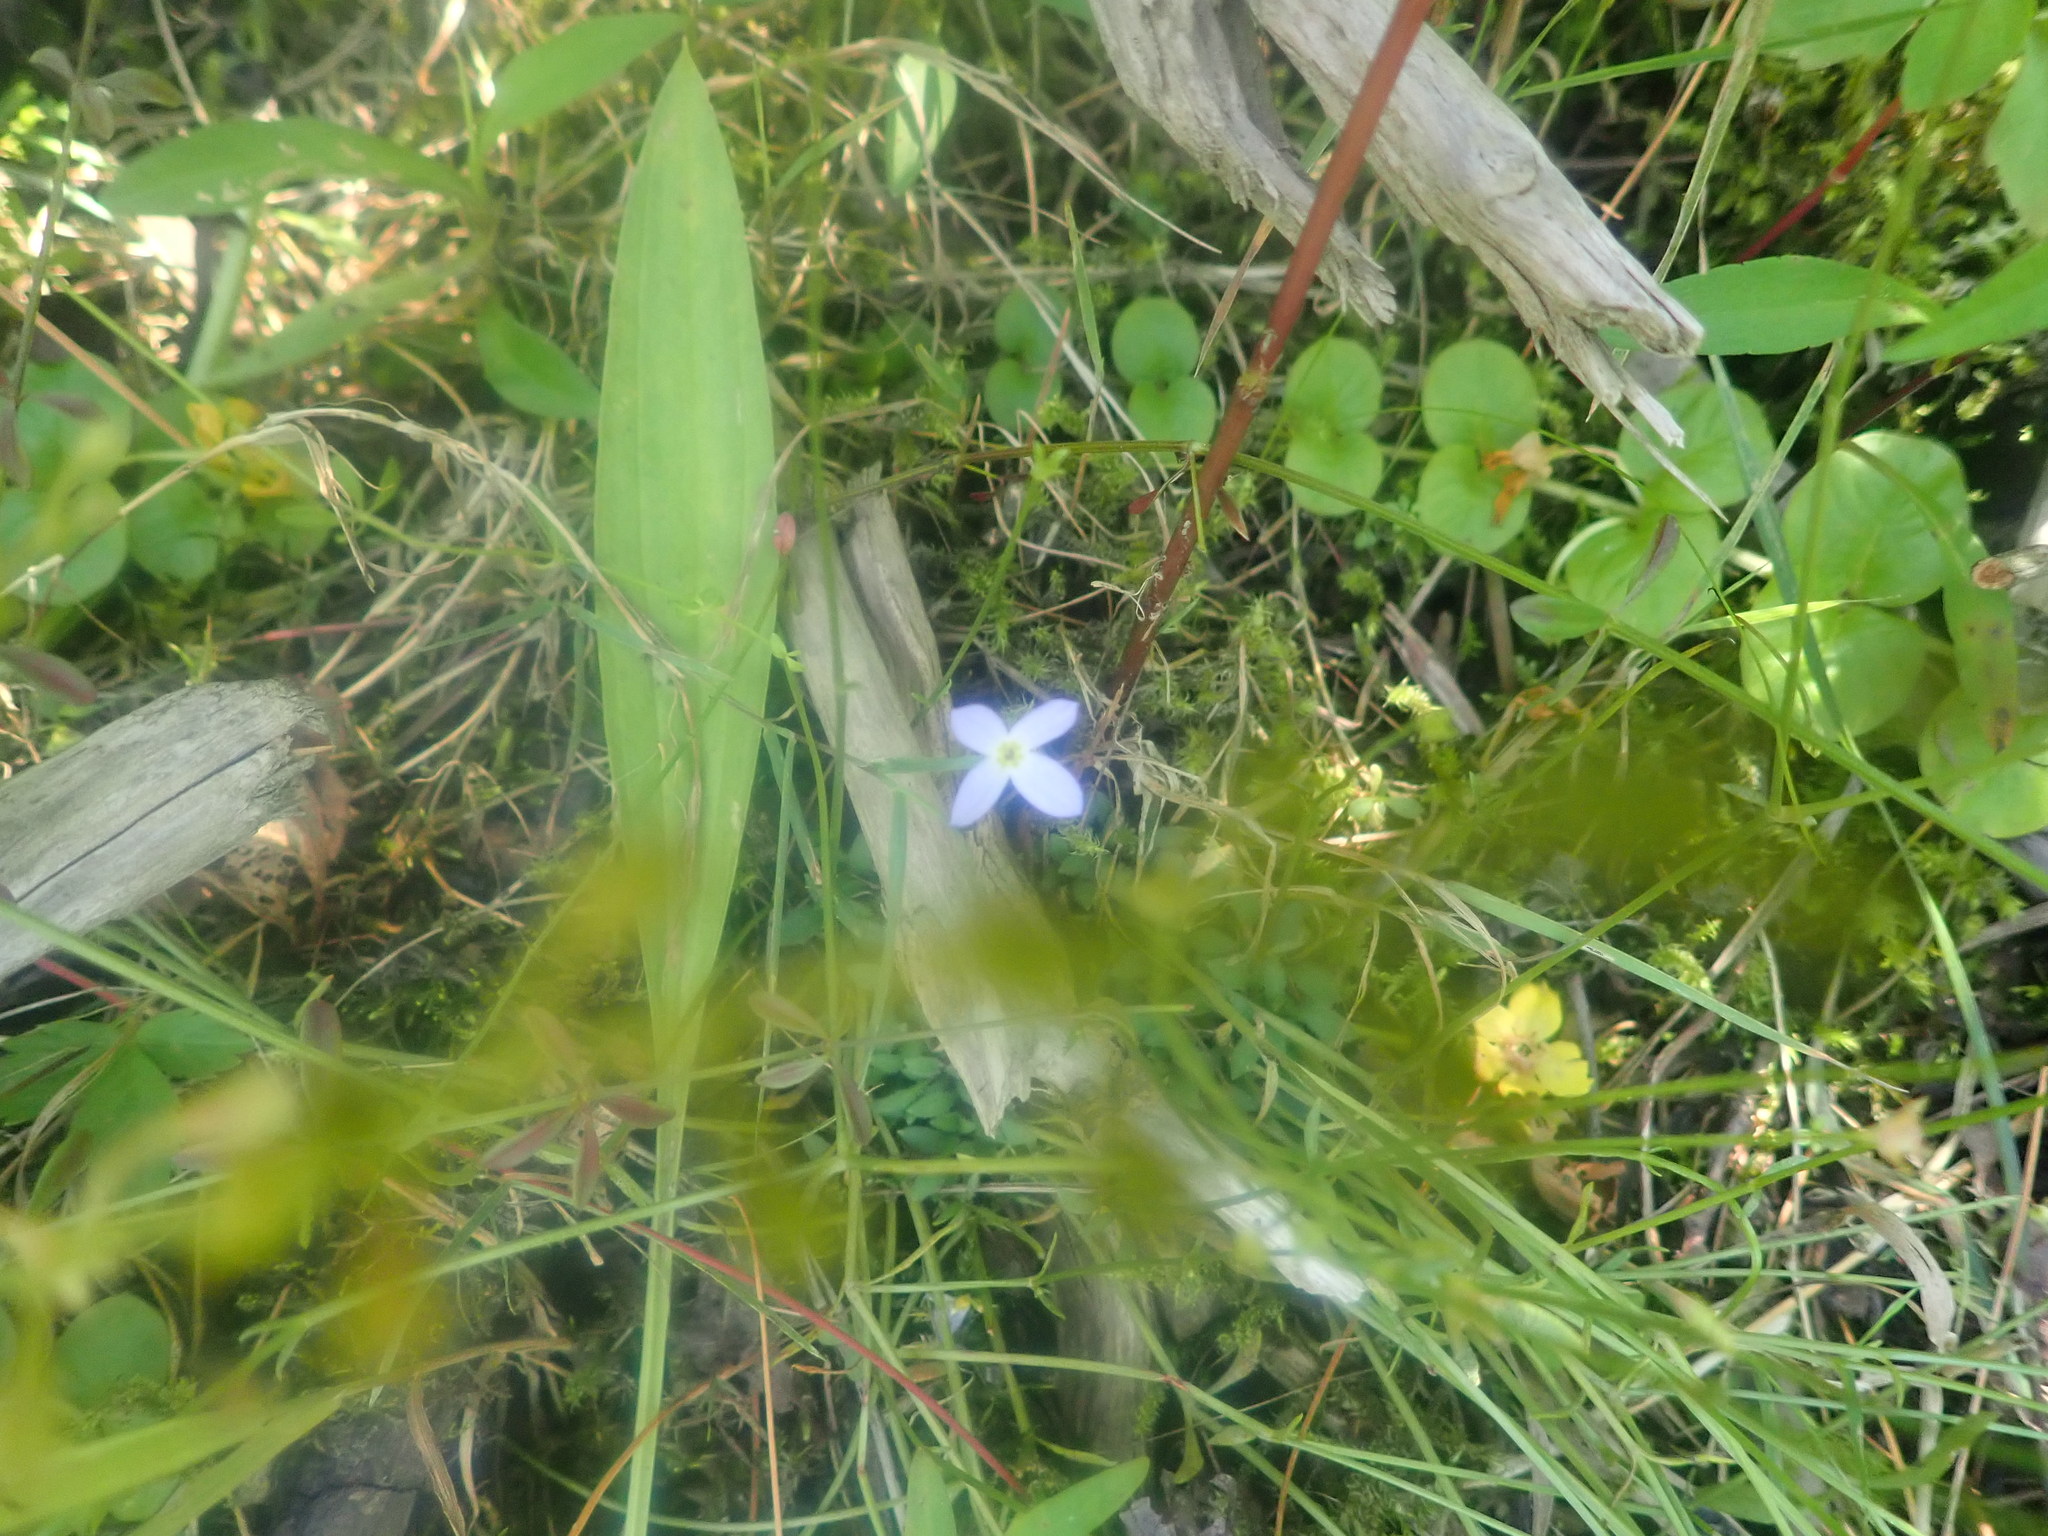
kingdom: Plantae
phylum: Tracheophyta
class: Magnoliopsida
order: Gentianales
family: Rubiaceae
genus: Houstonia
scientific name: Houstonia caerulea
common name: Bluets
